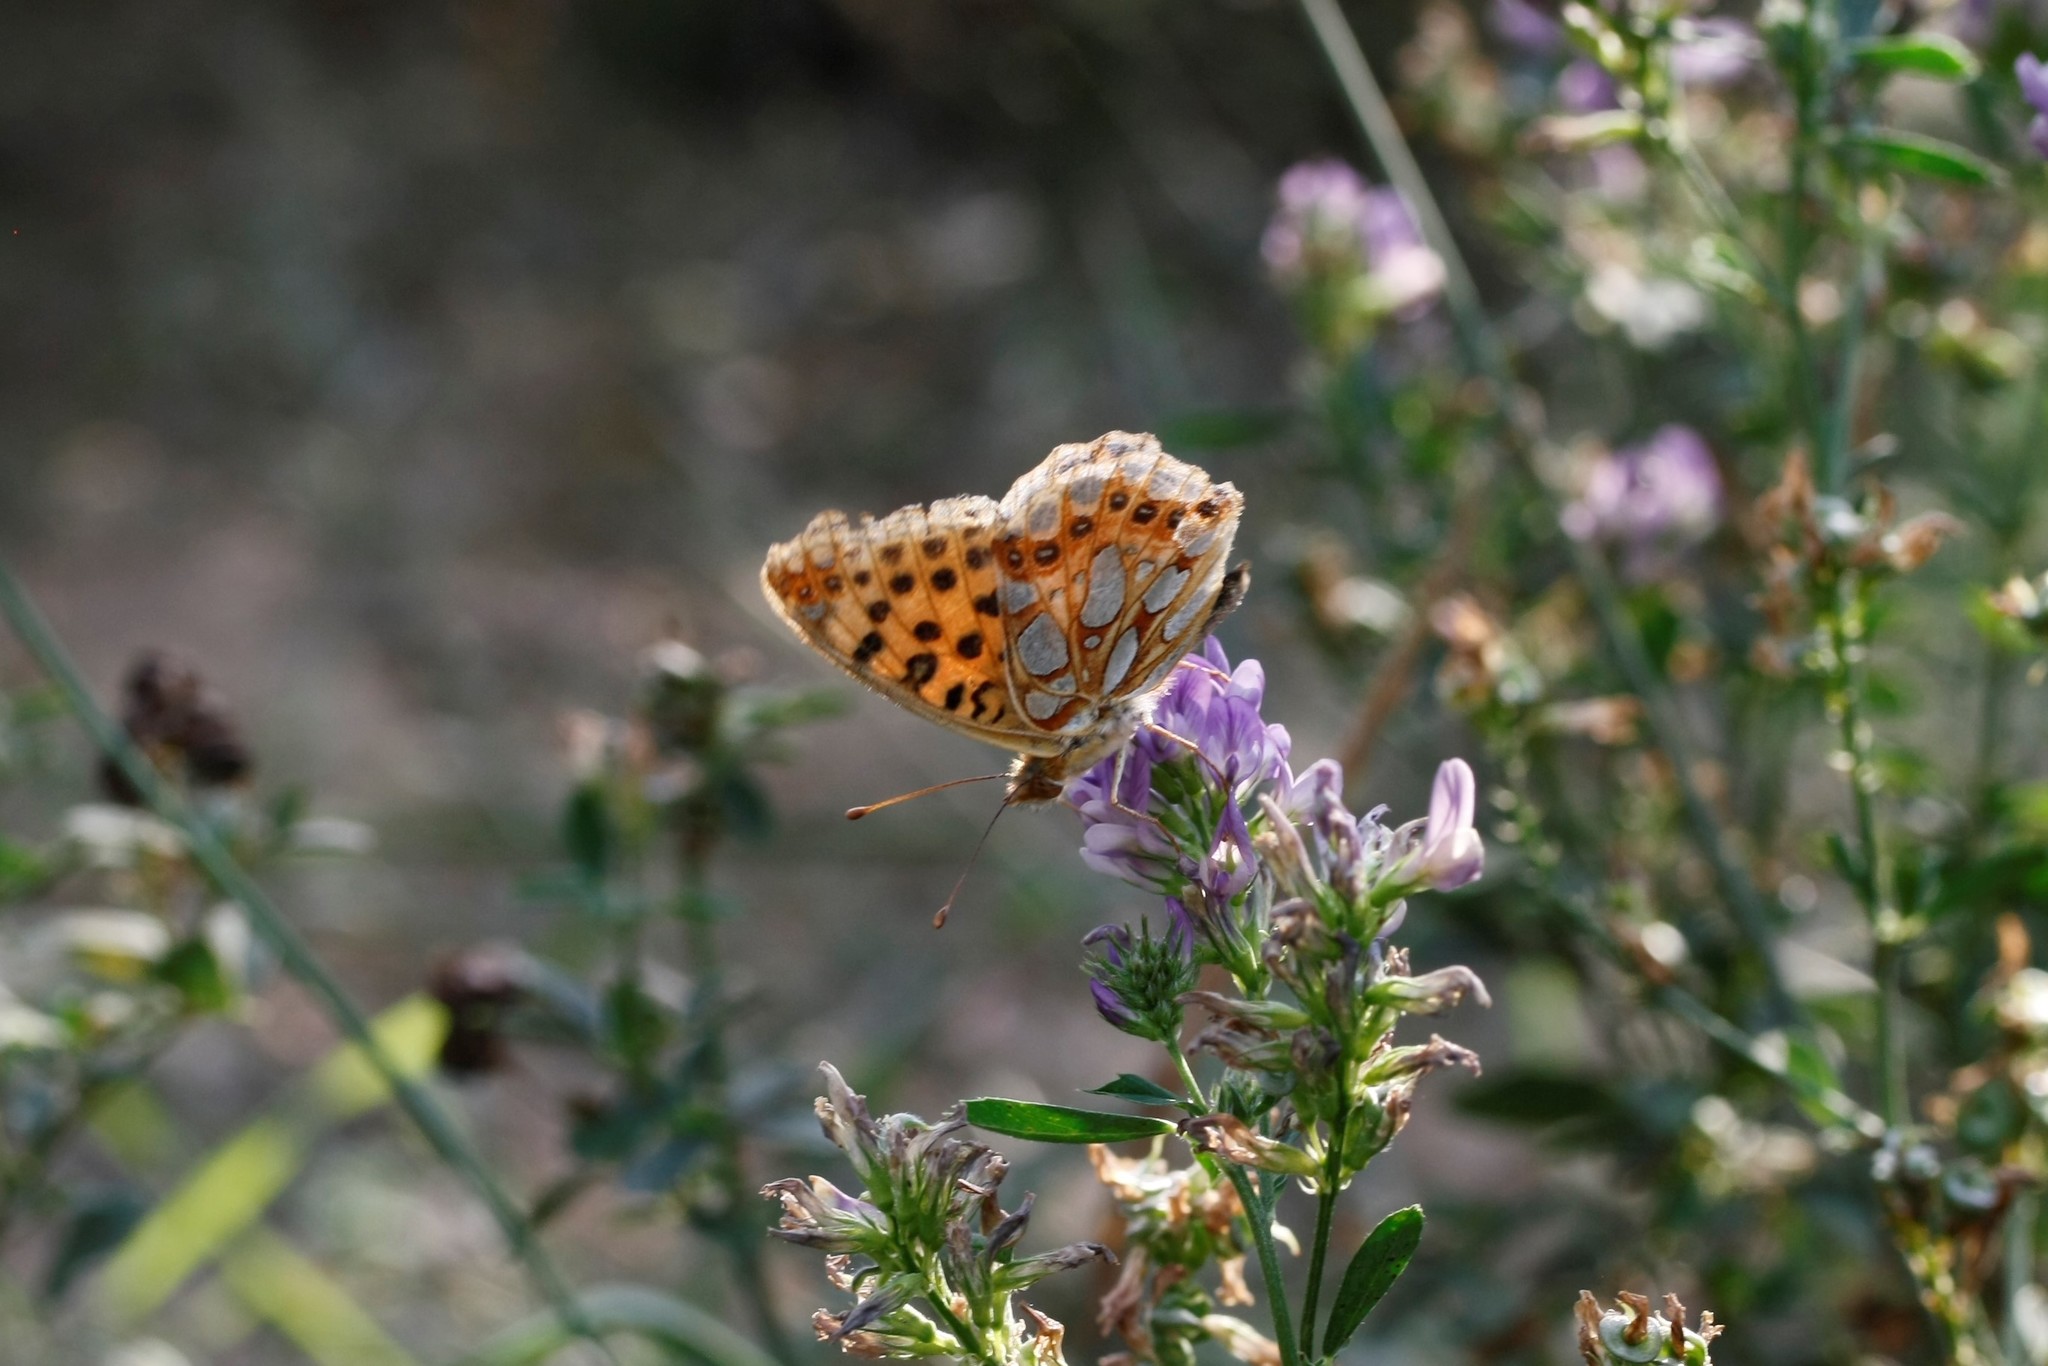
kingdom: Animalia
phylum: Arthropoda
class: Insecta
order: Lepidoptera
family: Nymphalidae
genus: Issoria
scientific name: Issoria lathonia
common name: Queen of spain fritillary
